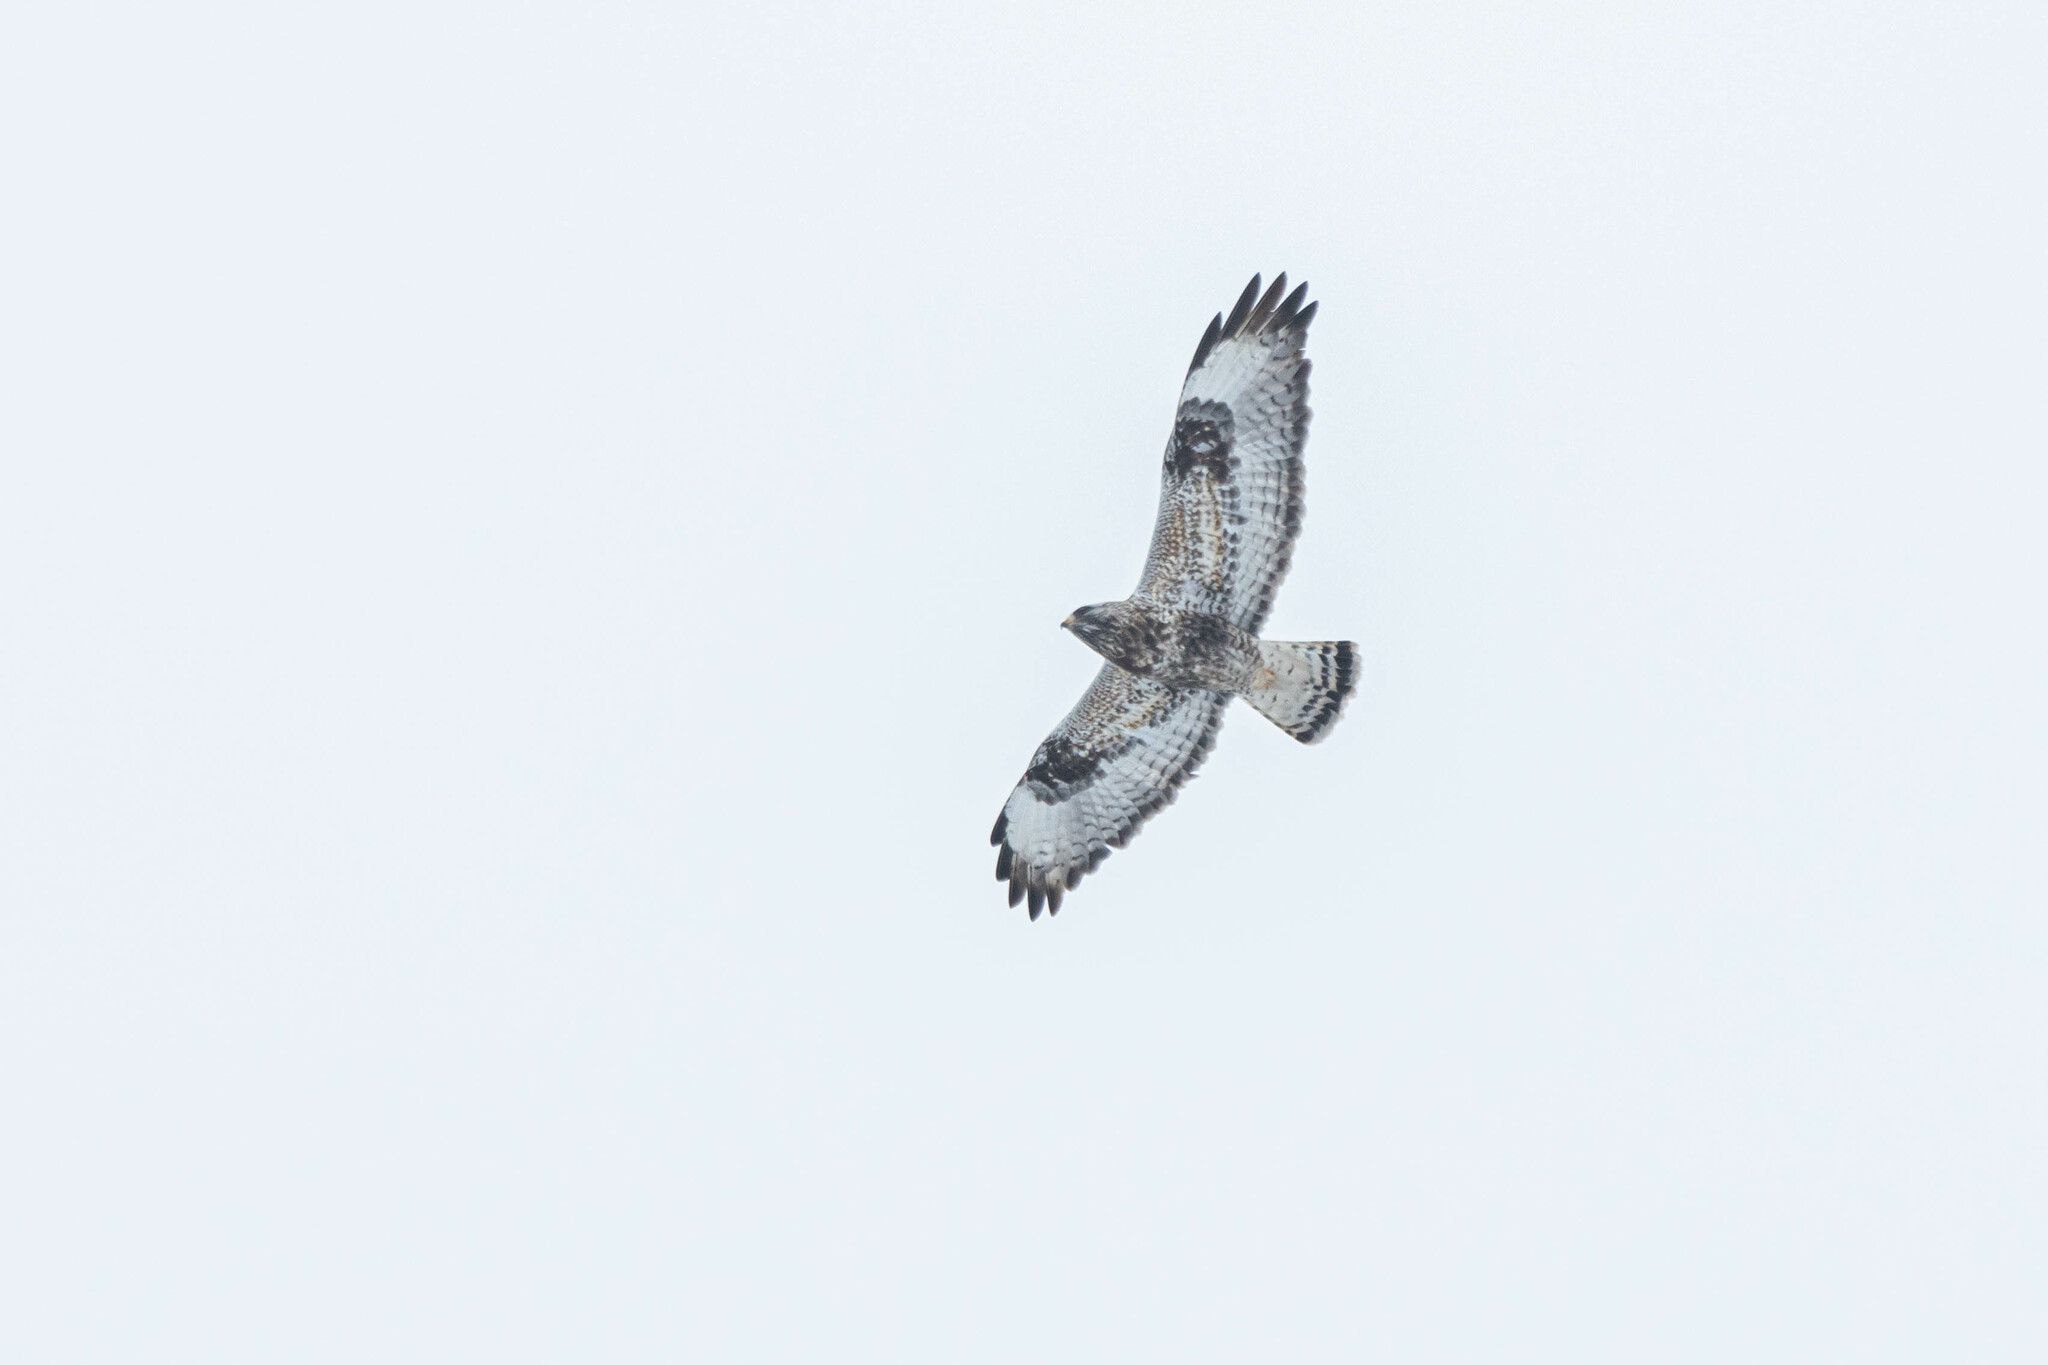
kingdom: Animalia
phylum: Chordata
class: Aves
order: Accipitriformes
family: Accipitridae
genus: Buteo
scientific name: Buteo lagopus
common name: Rough-legged buzzard
